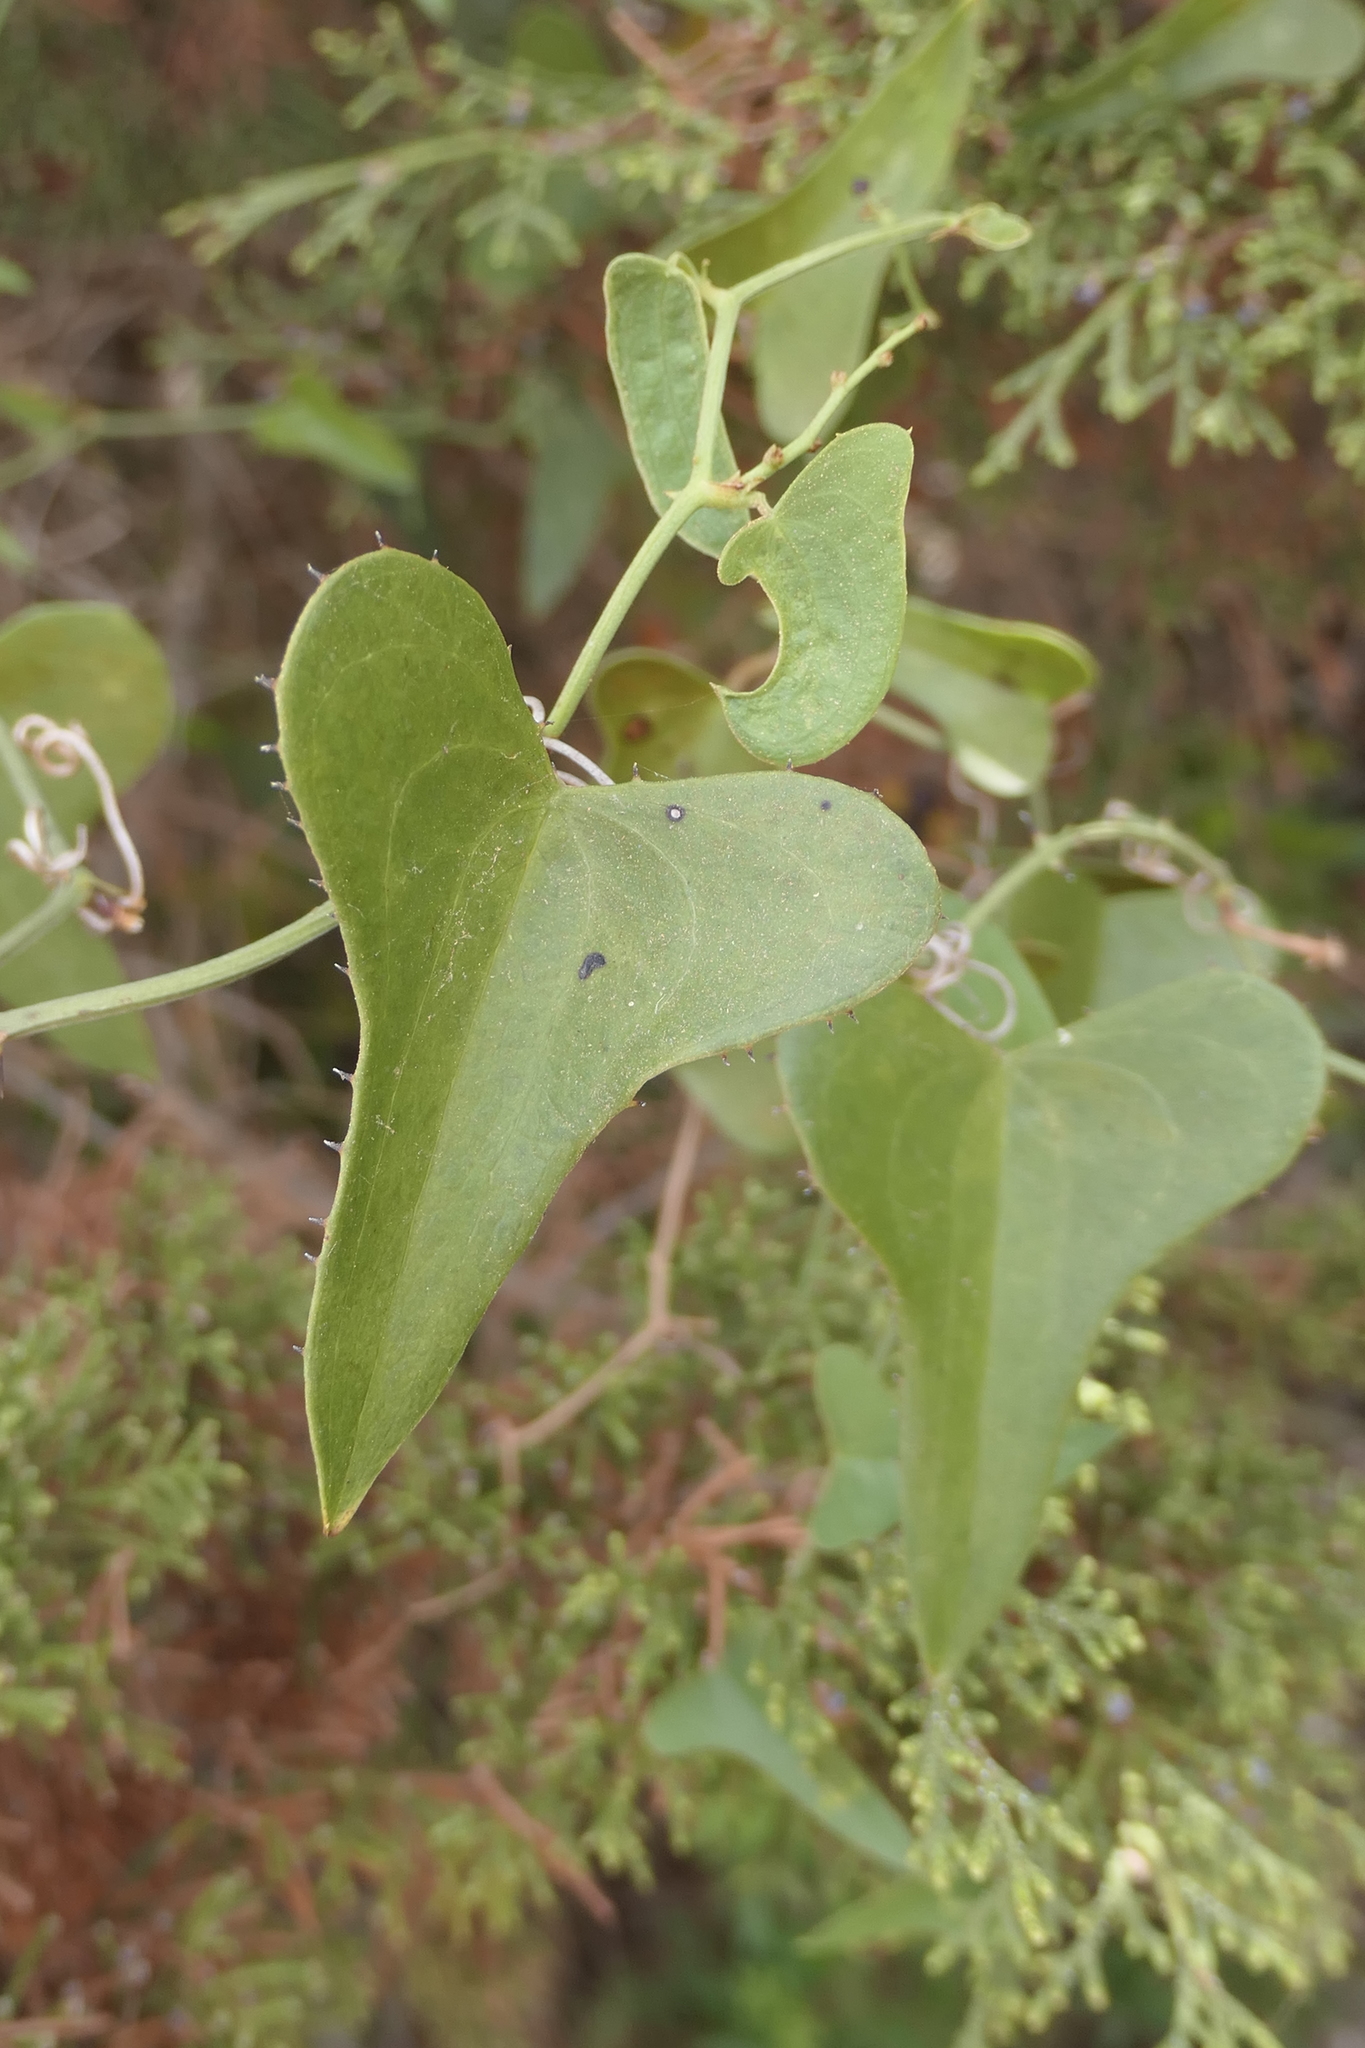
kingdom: Plantae
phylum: Tracheophyta
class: Liliopsida
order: Liliales
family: Smilacaceae
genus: Smilax
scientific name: Smilax aspera
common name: Common smilax
